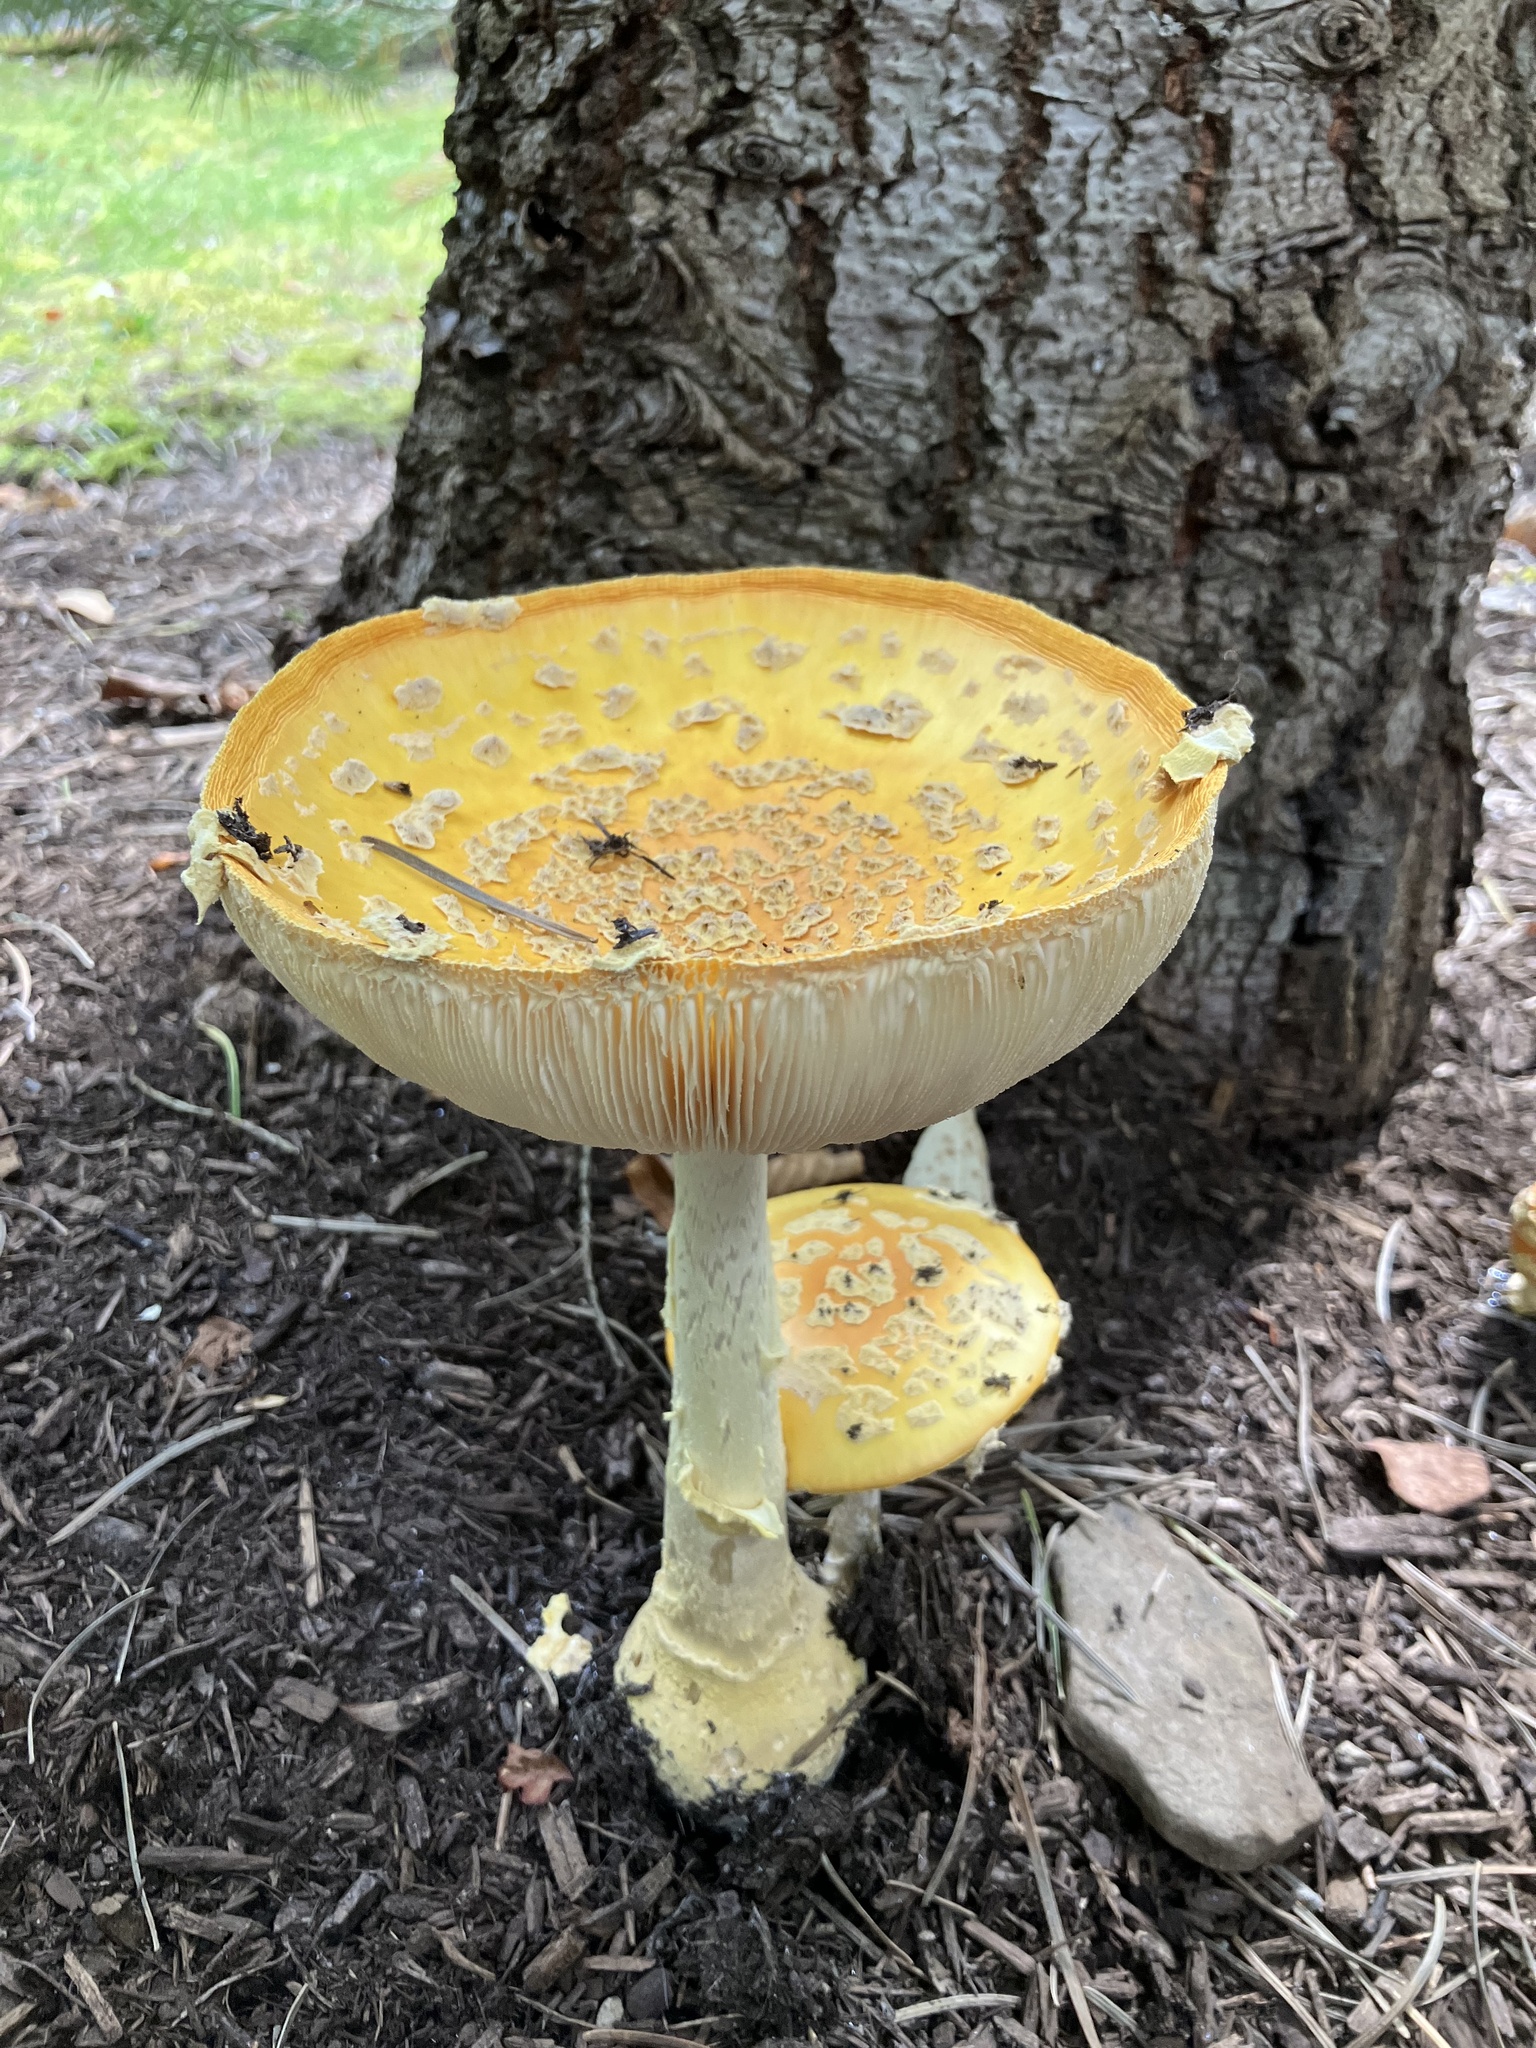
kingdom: Fungi
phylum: Basidiomycota
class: Agaricomycetes
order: Agaricales
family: Amanitaceae
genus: Amanita
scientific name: Amanita muscaria
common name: Fly agaric
